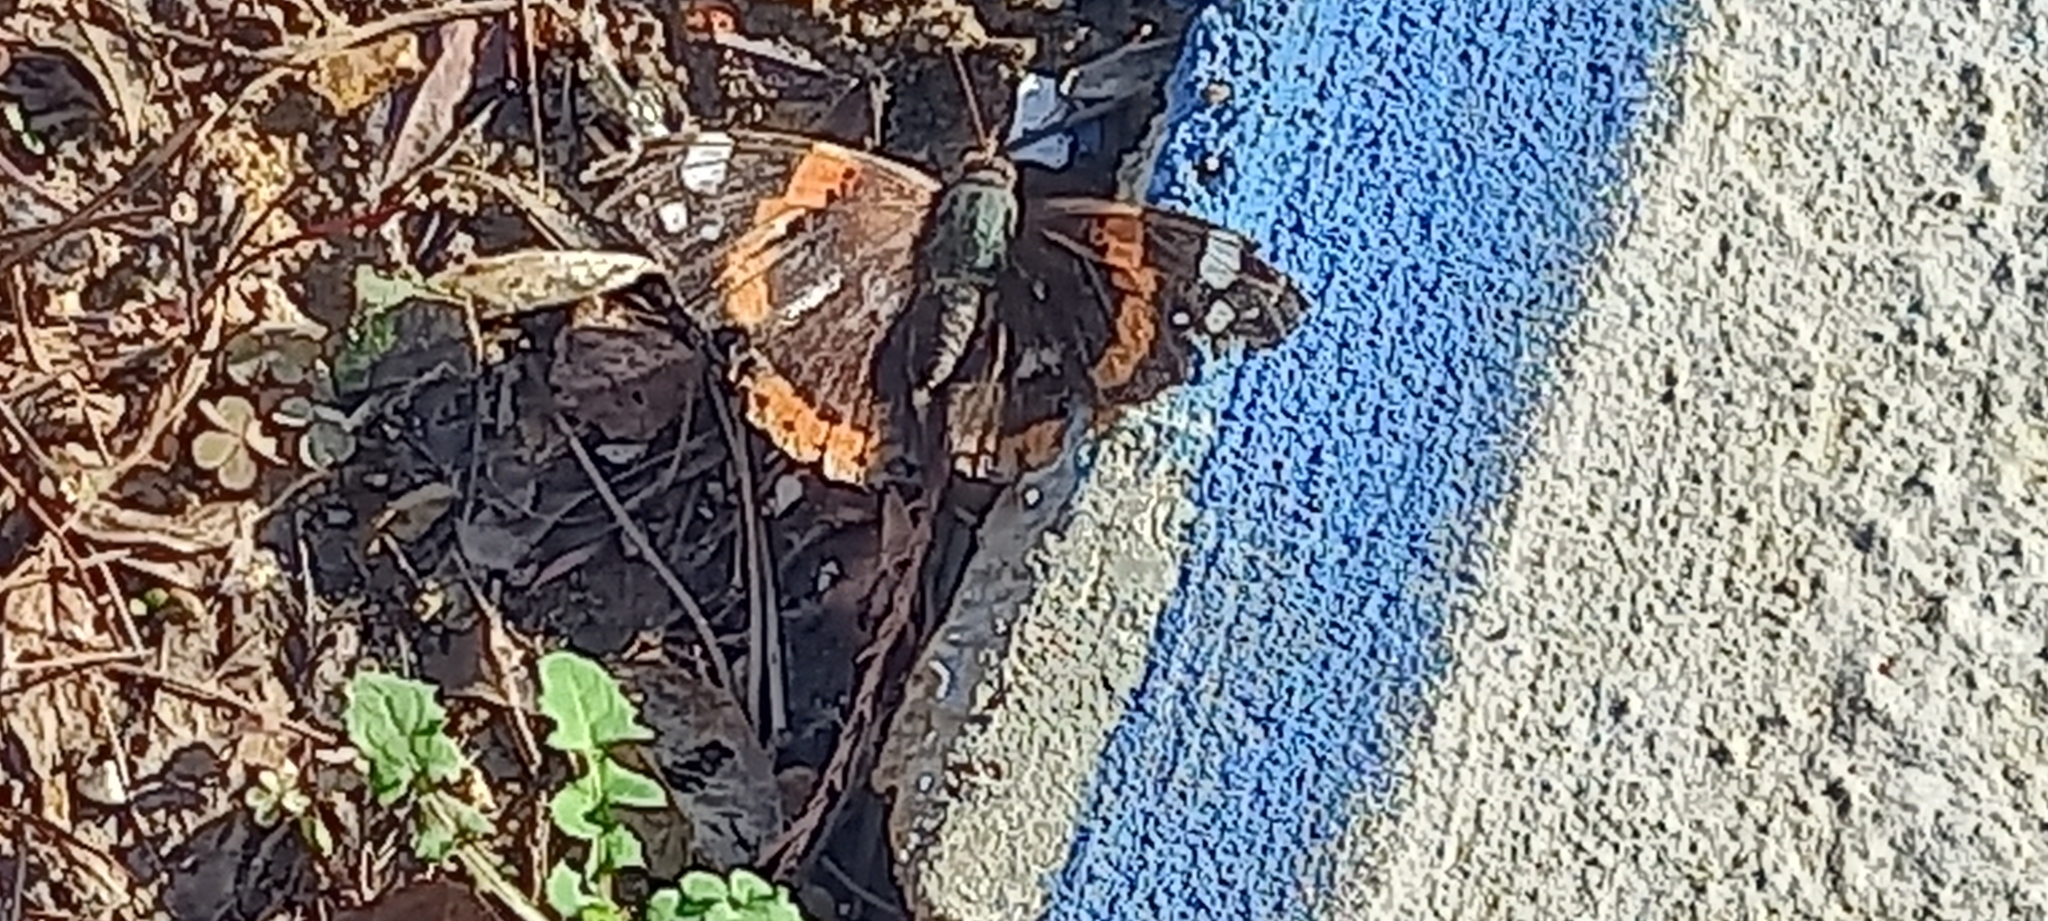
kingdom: Animalia
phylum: Arthropoda
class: Insecta
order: Lepidoptera
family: Nymphalidae
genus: Vanessa
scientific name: Vanessa atalanta
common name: Red admiral
